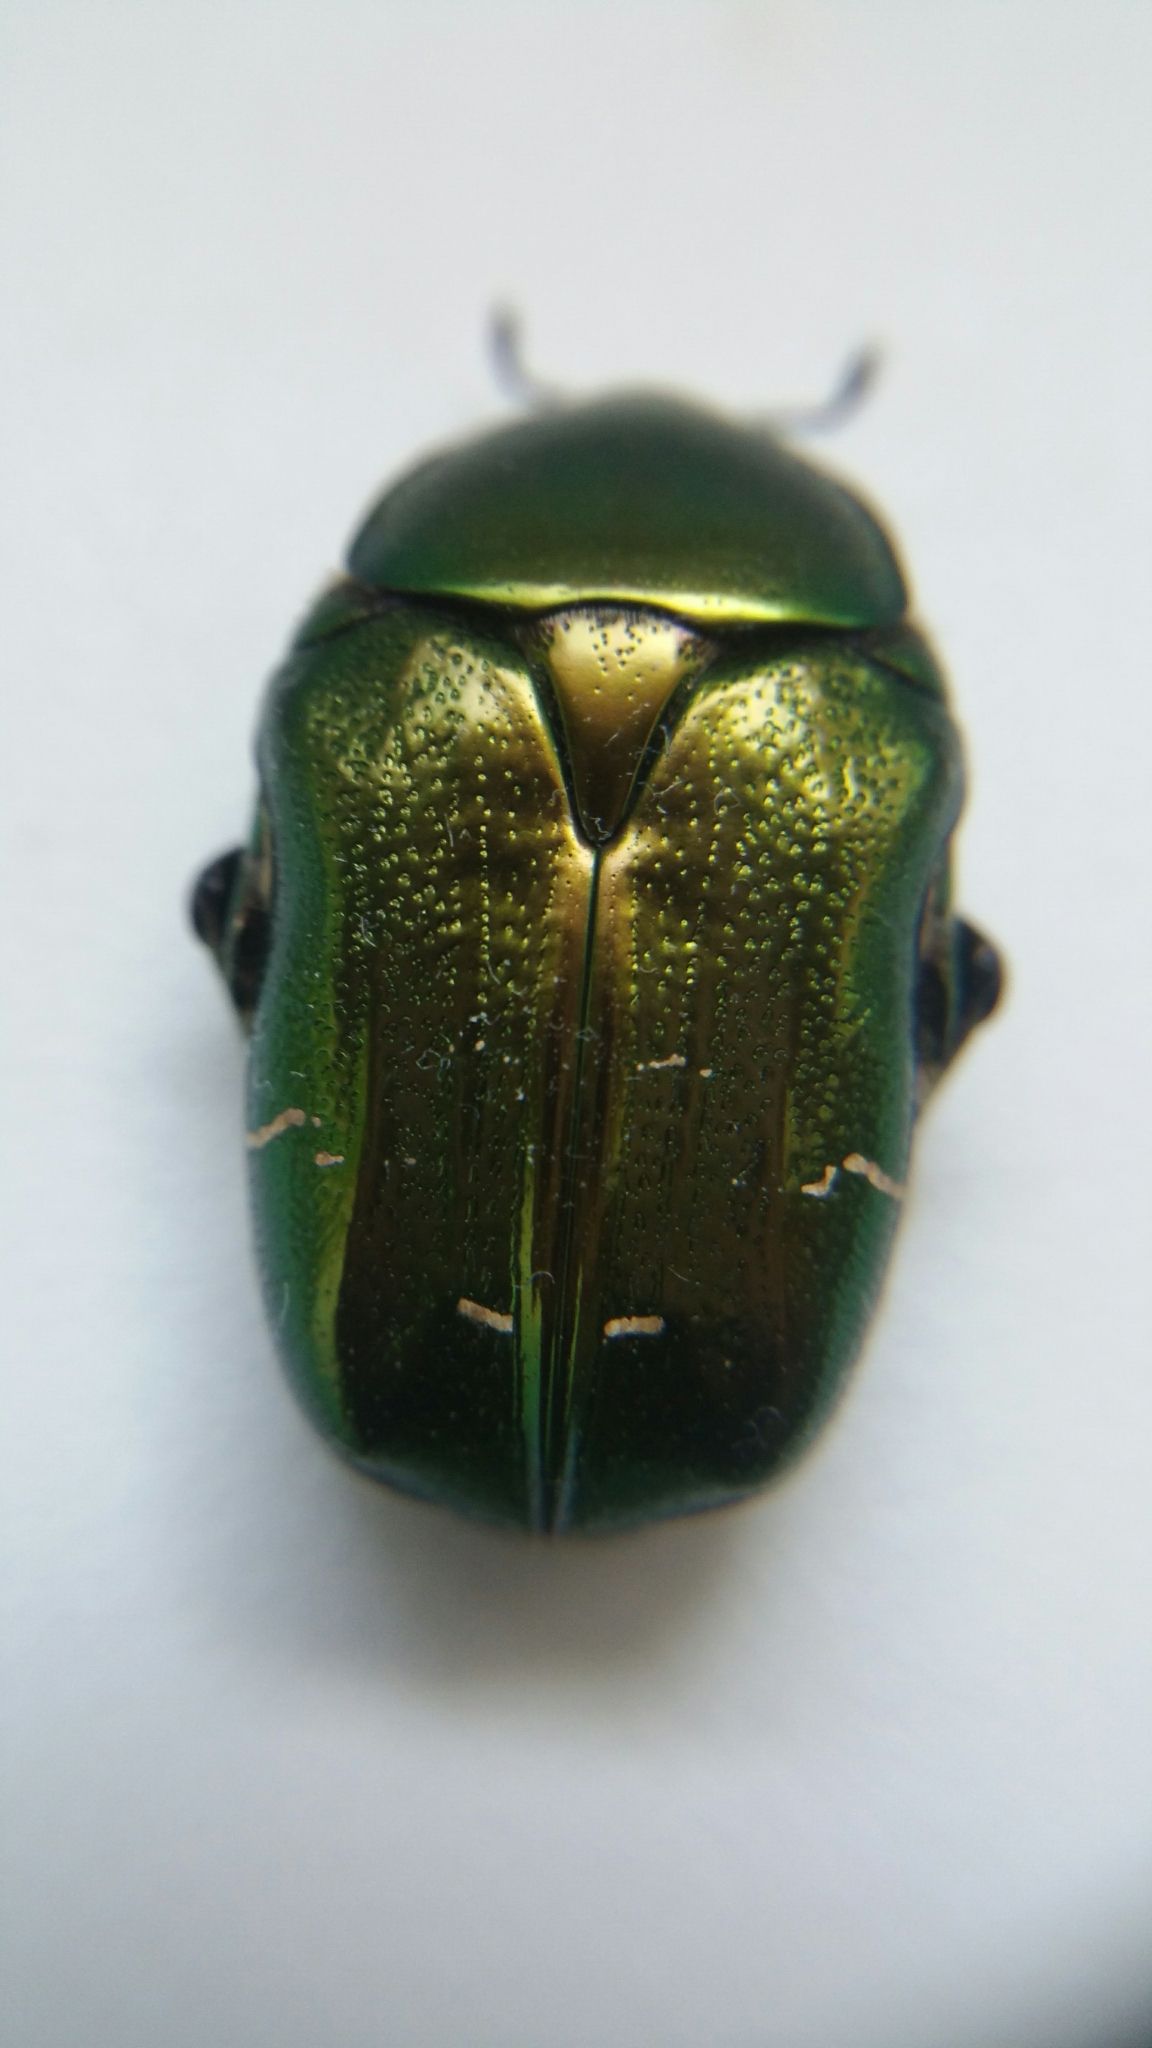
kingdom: Animalia
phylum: Arthropoda
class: Insecta
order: Coleoptera
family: Scarabaeidae
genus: Cetonia
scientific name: Cetonia aurata
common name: Rose chafer
